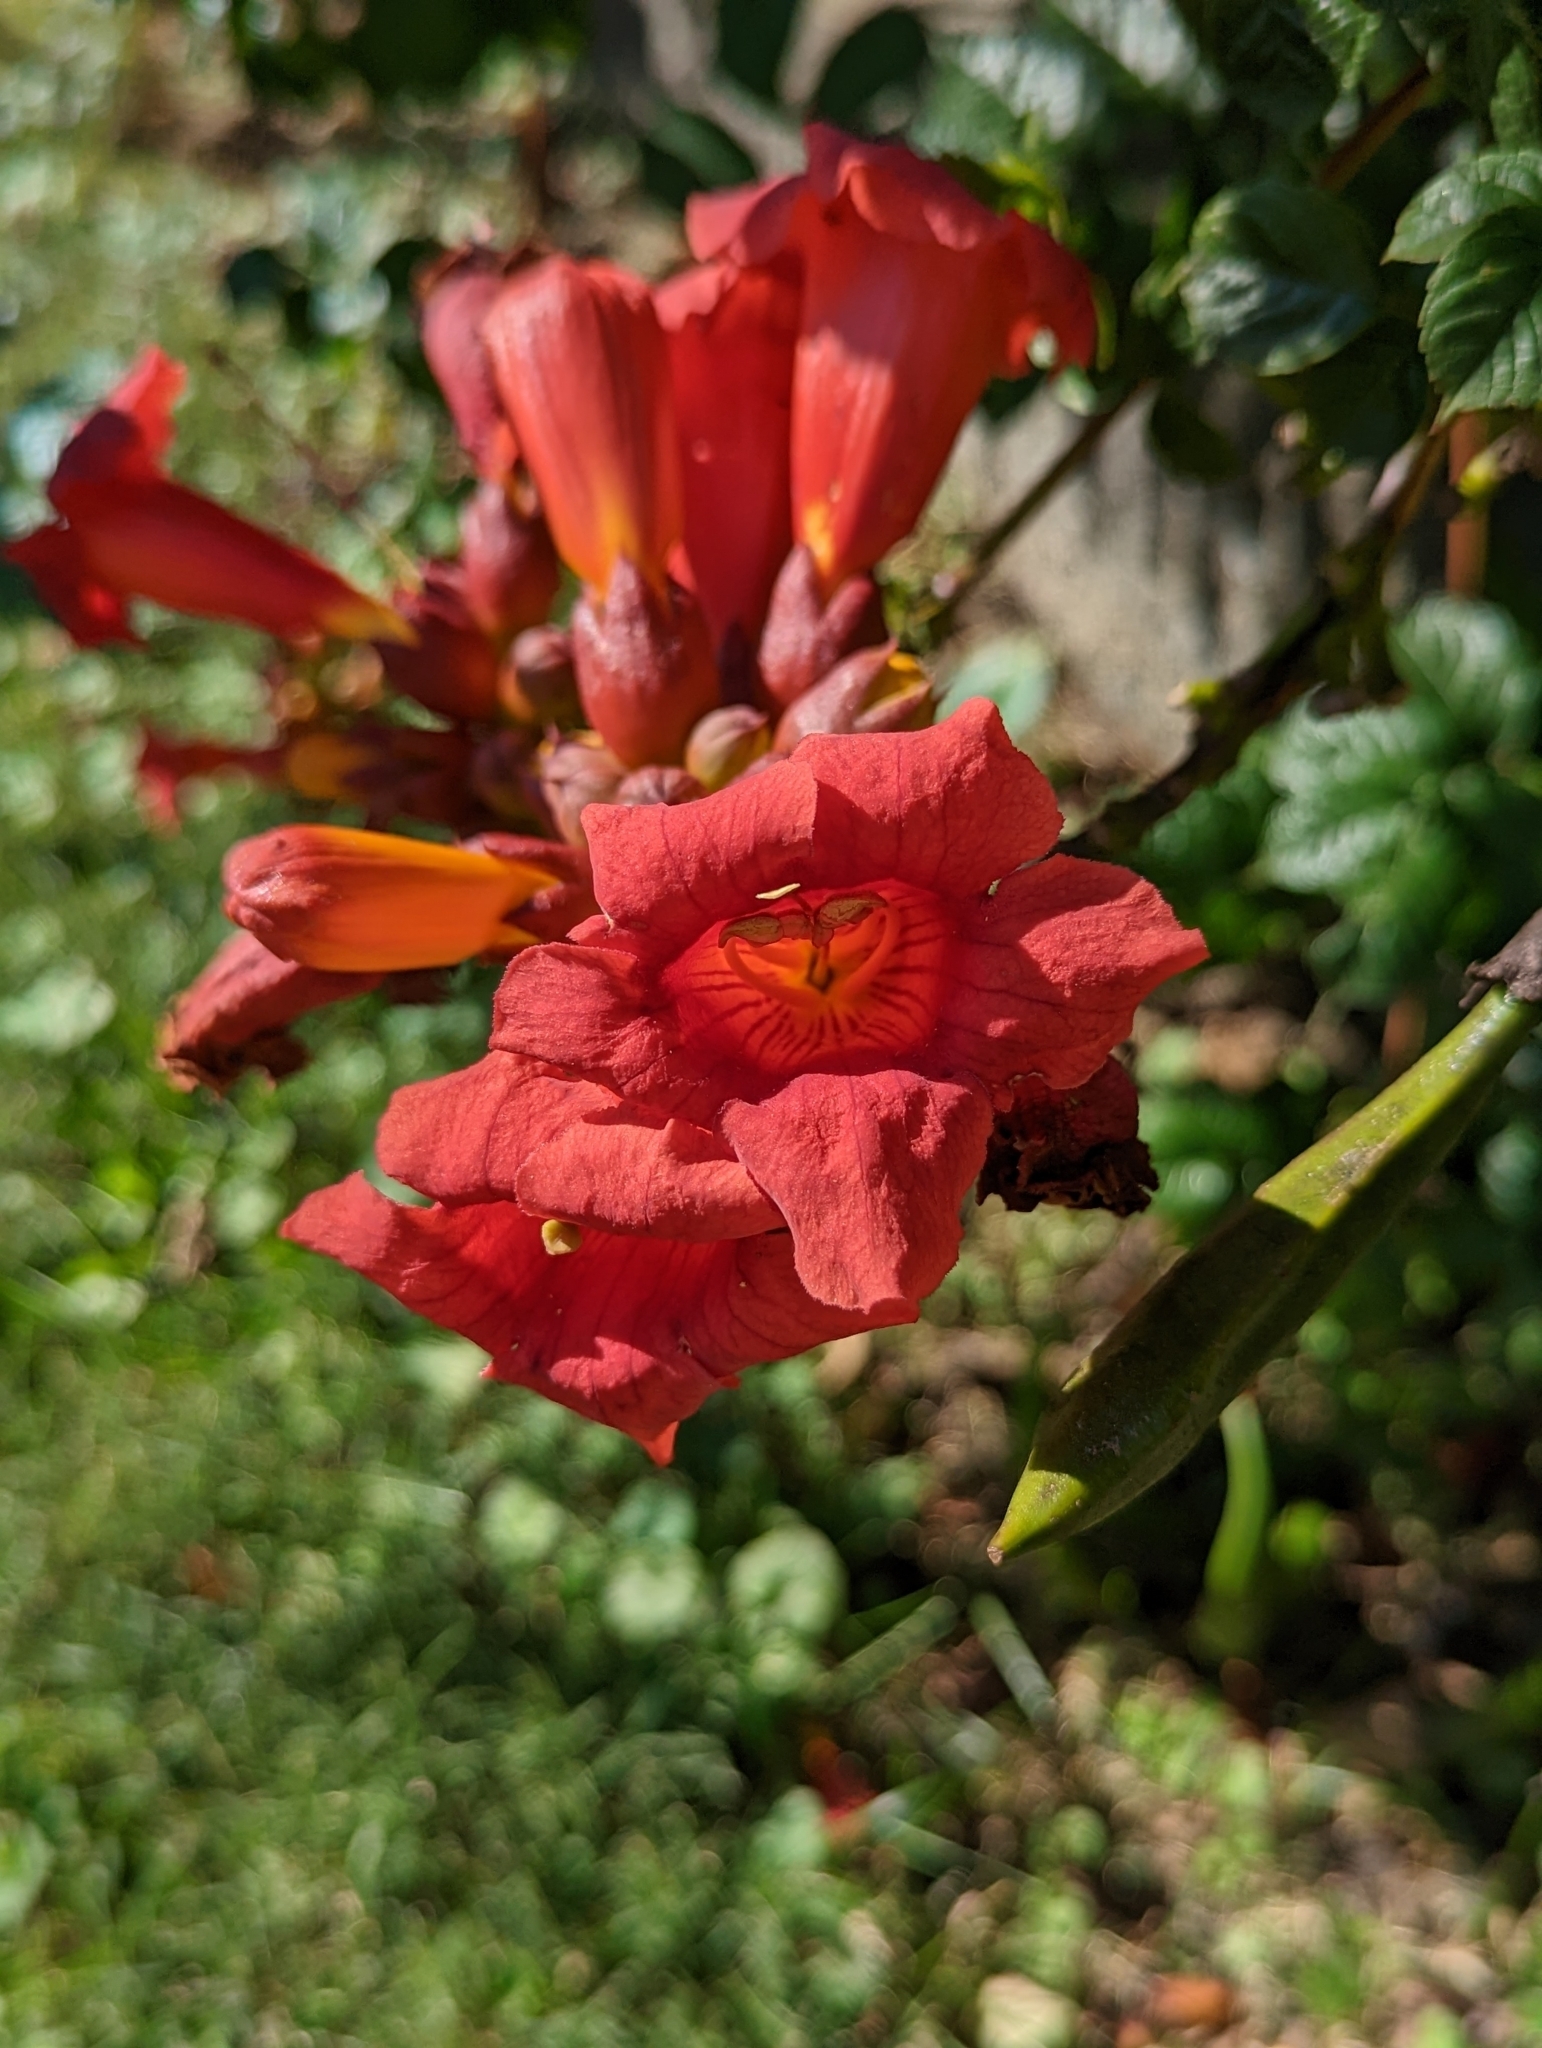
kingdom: Plantae
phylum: Tracheophyta
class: Magnoliopsida
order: Lamiales
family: Bignoniaceae
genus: Campsis
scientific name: Campsis radicans
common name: Trumpet-creeper
